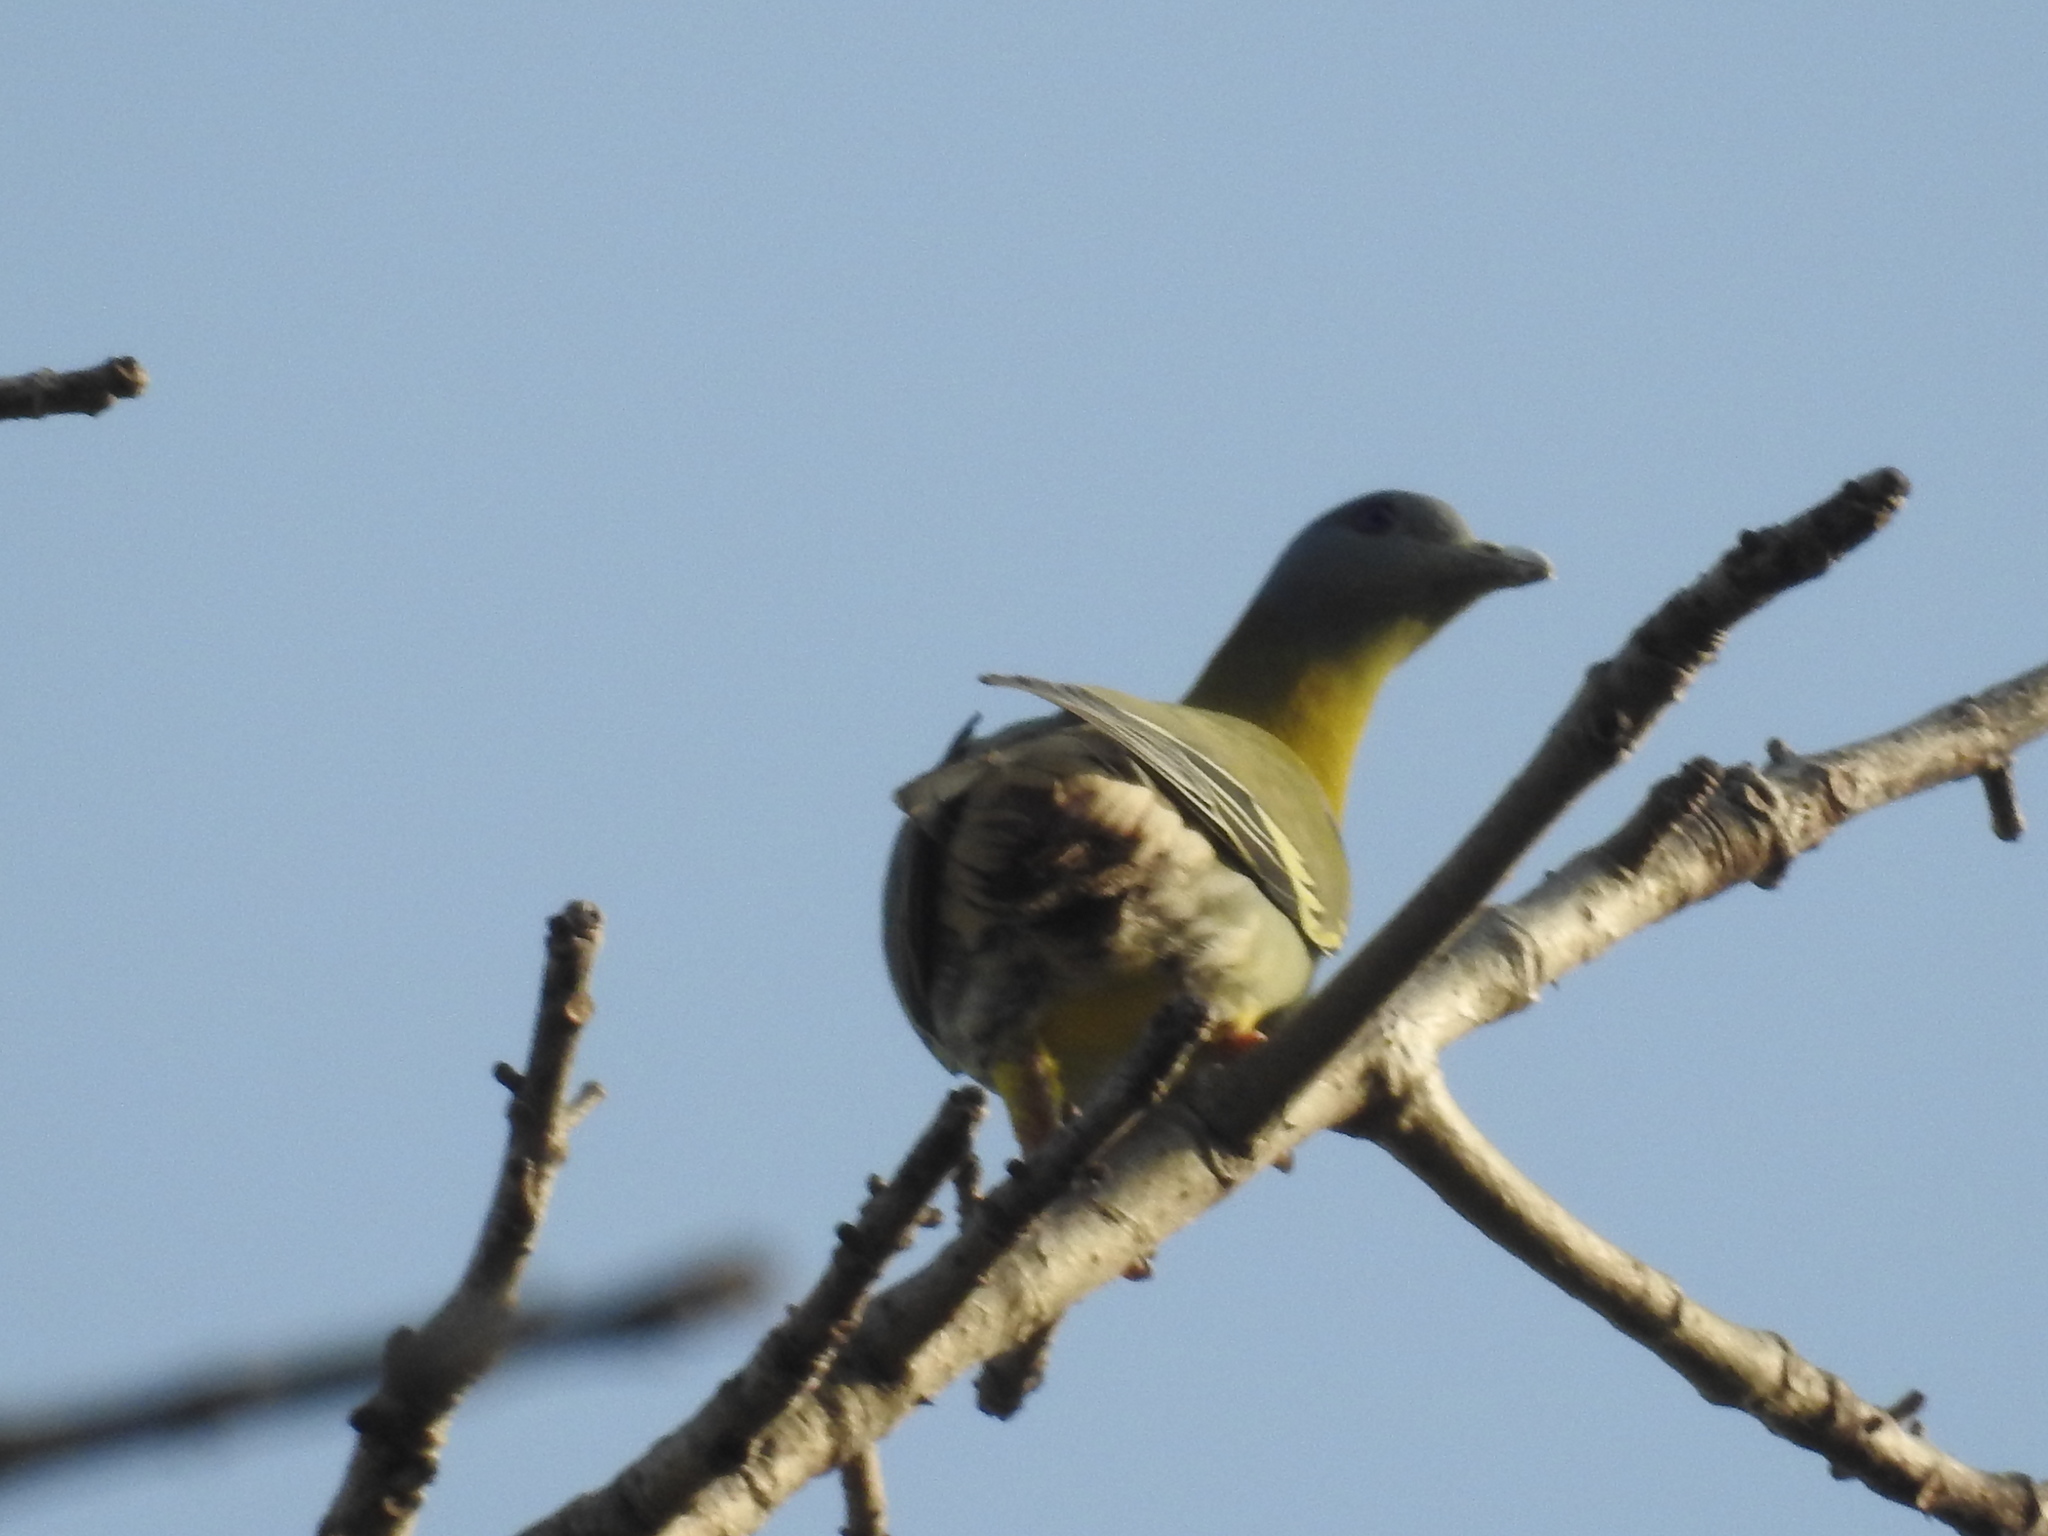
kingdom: Animalia
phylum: Chordata
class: Aves
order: Columbiformes
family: Columbidae
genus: Treron
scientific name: Treron phoenicopterus
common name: Yellow-footed green pigeon
